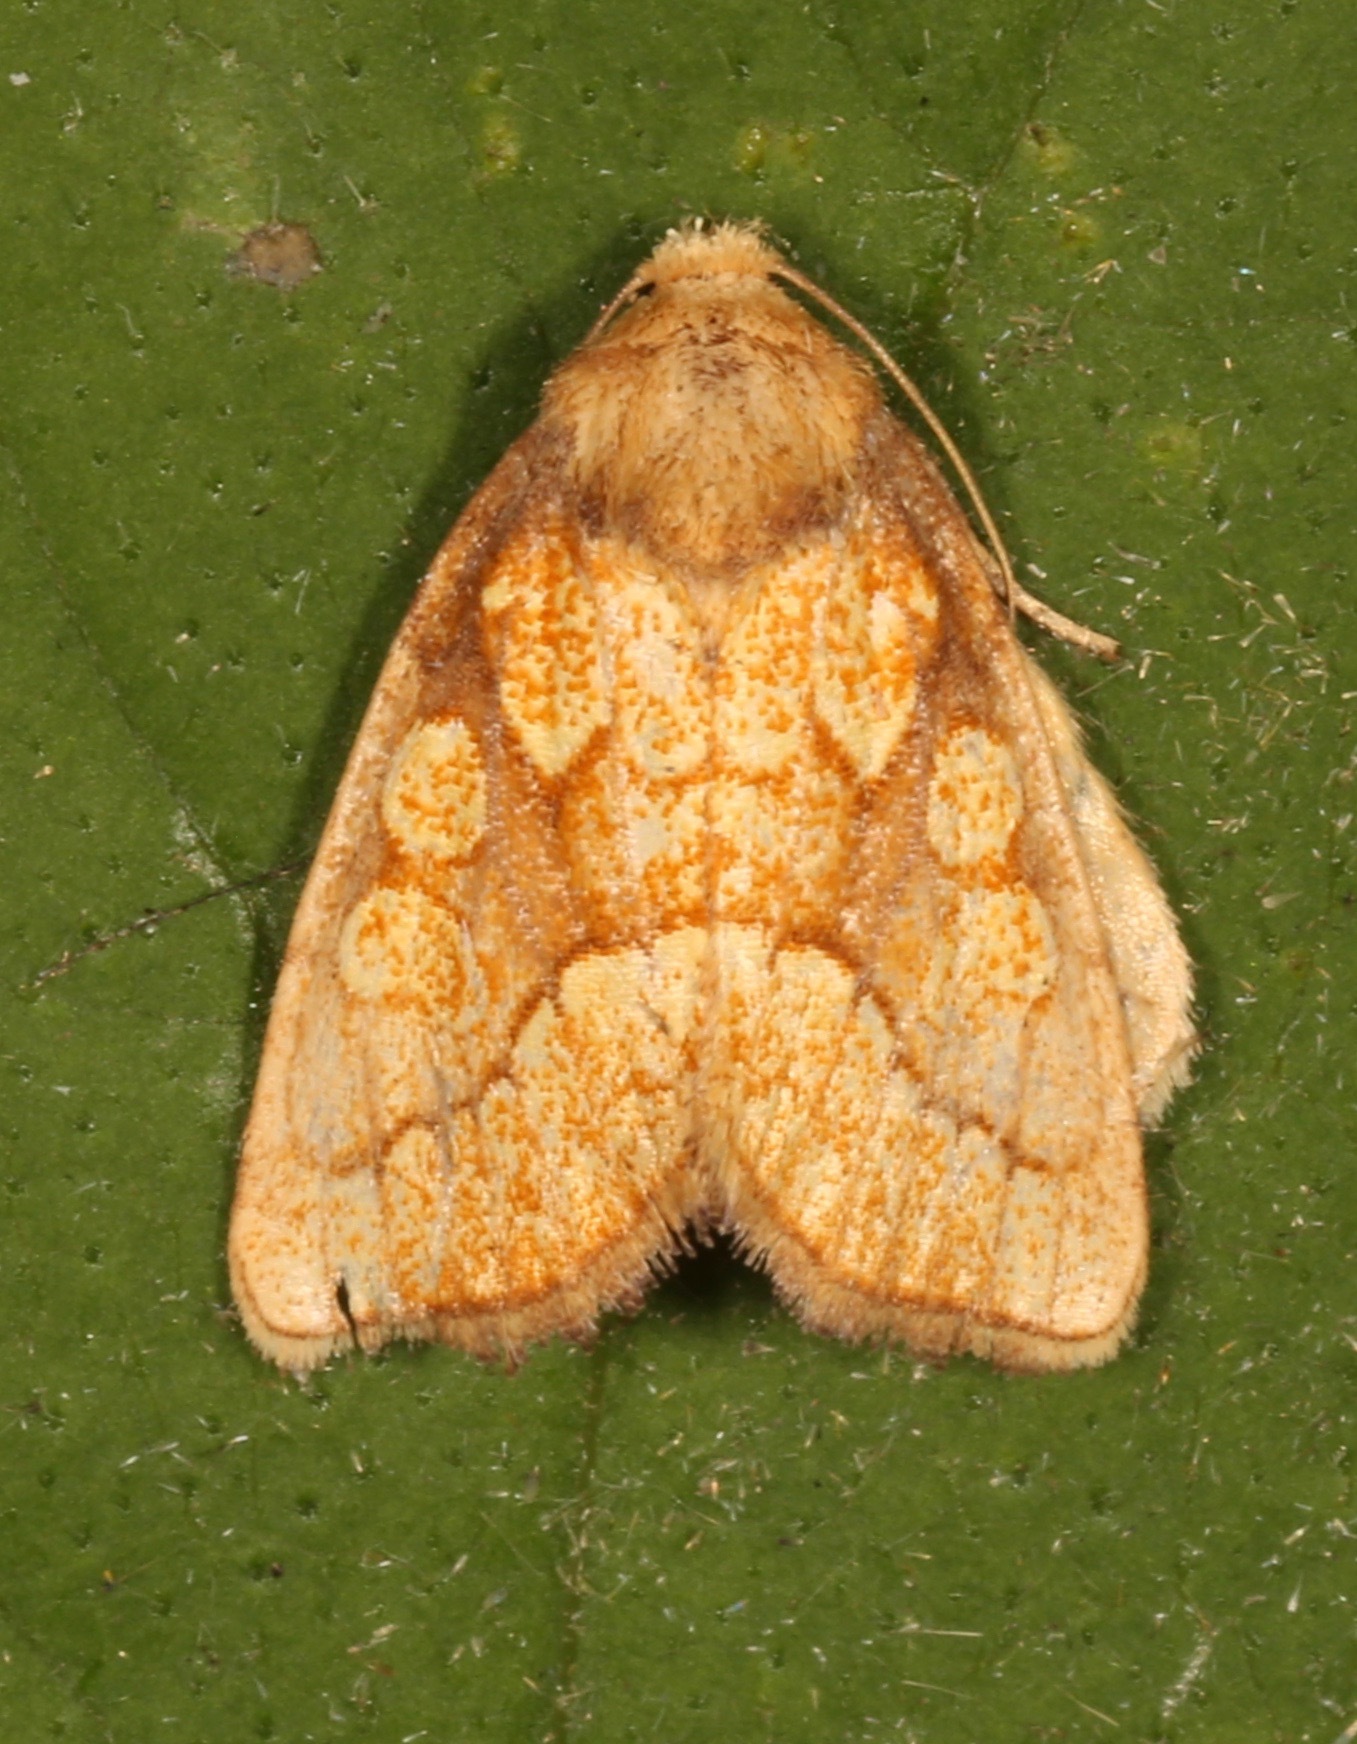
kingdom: Animalia
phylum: Arthropoda
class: Insecta
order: Lepidoptera
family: Noctuidae
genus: Nocloa
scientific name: Nocloa alcandra
